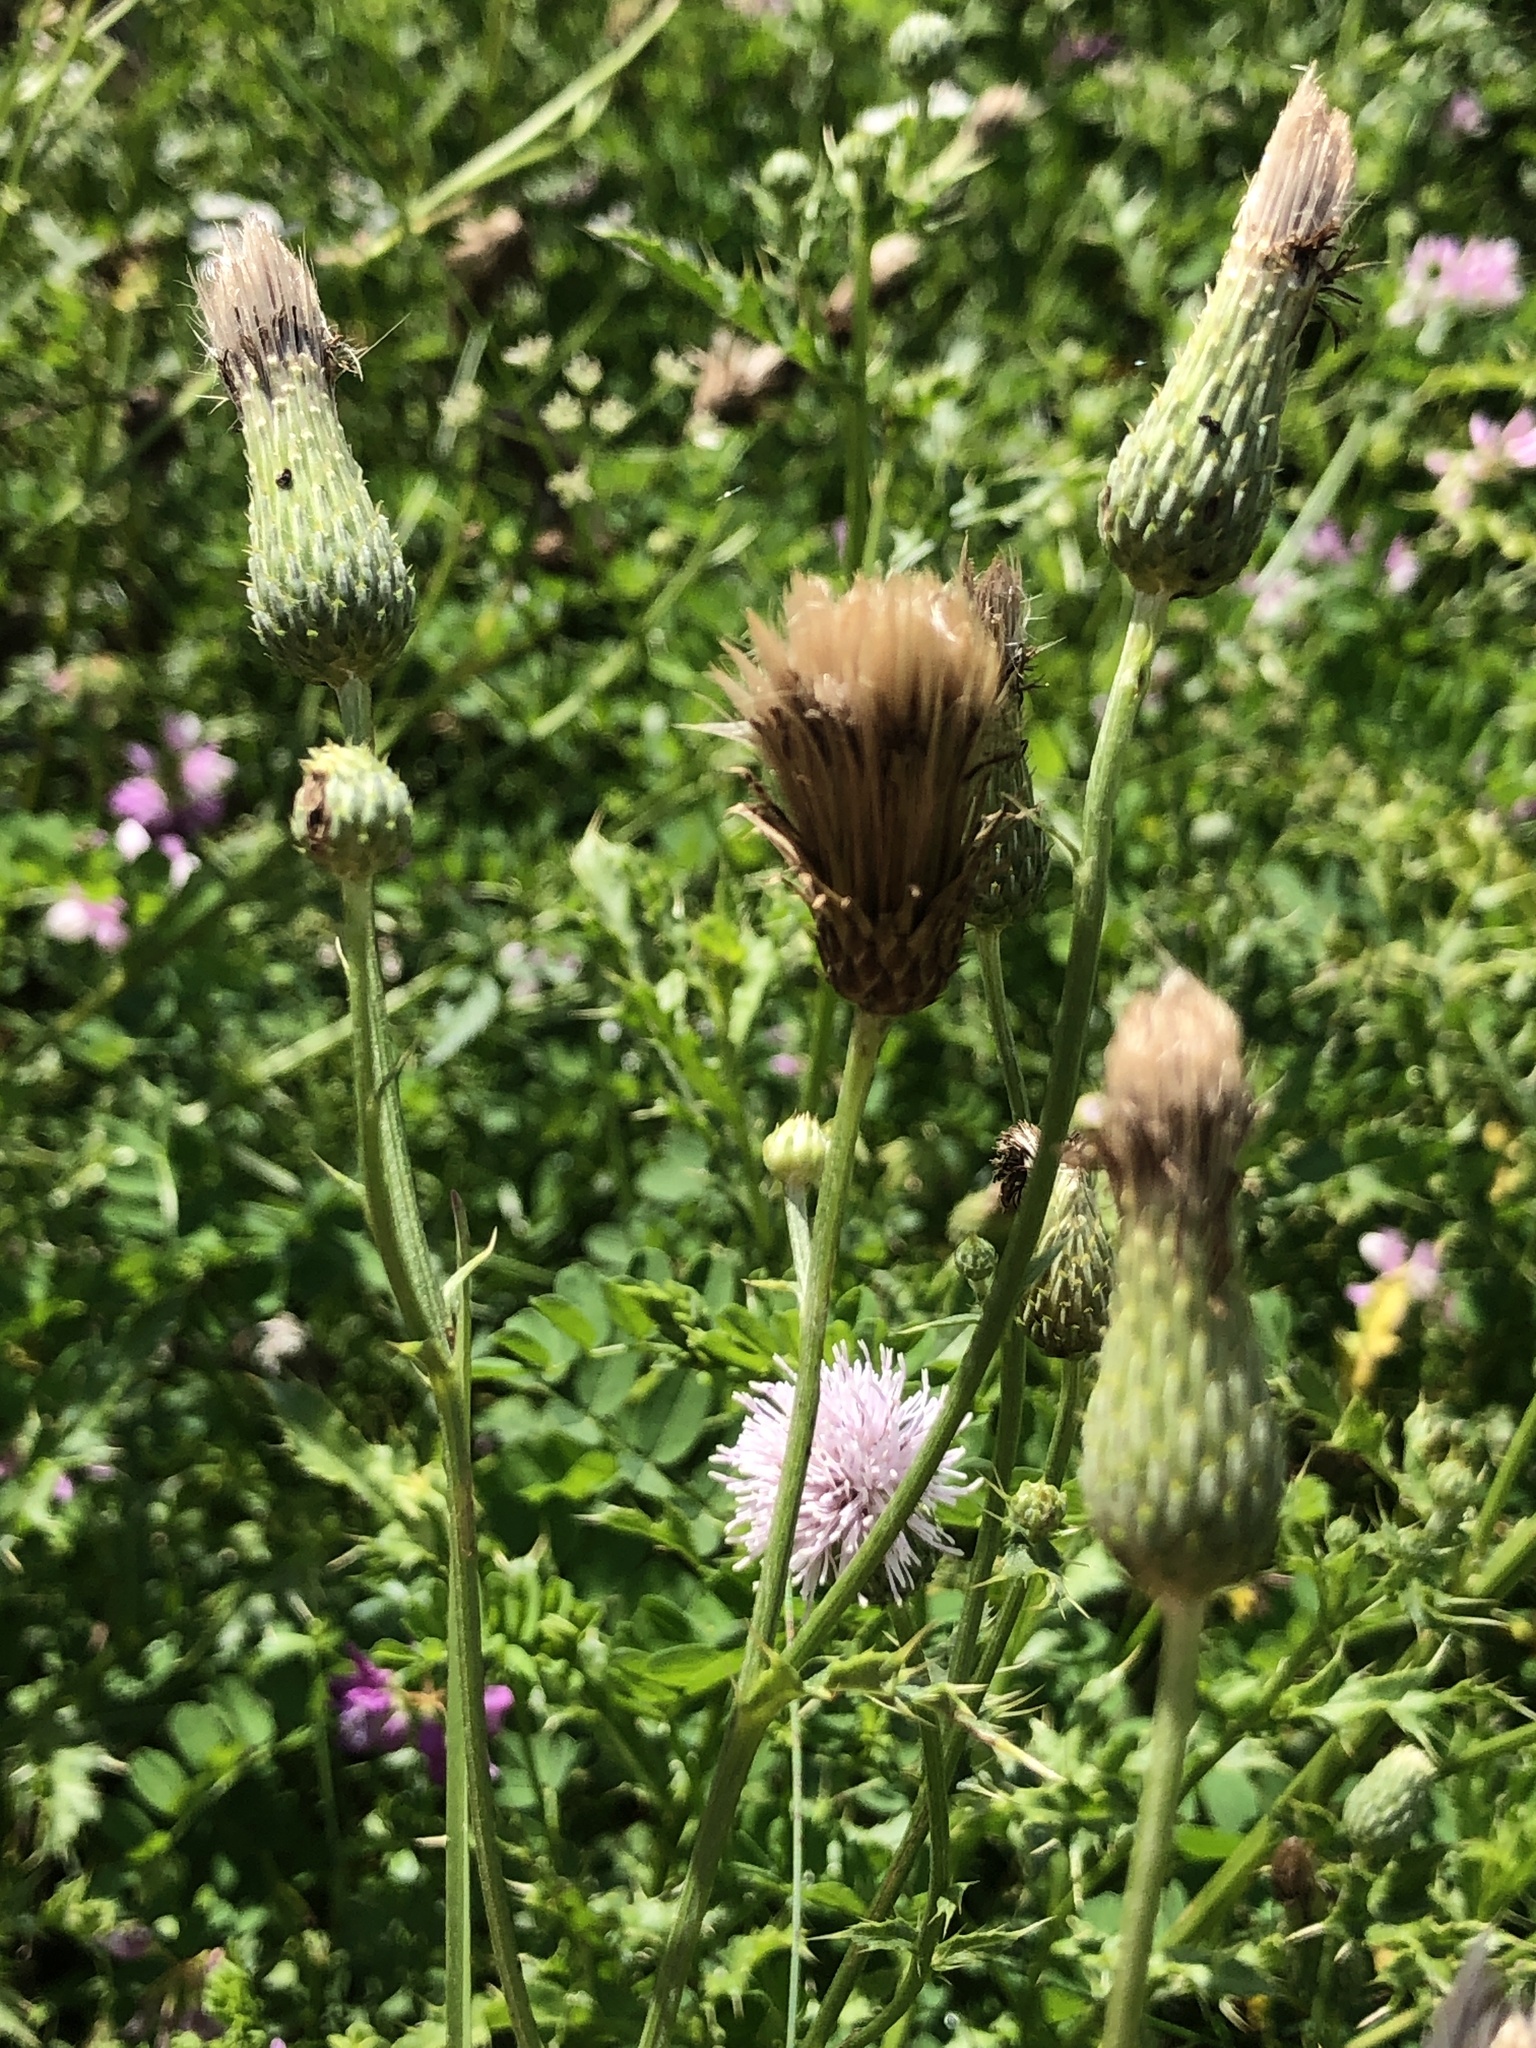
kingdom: Plantae
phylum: Tracheophyta
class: Magnoliopsida
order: Asterales
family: Asteraceae
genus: Cirsium
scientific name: Cirsium arvense
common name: Creeping thistle
